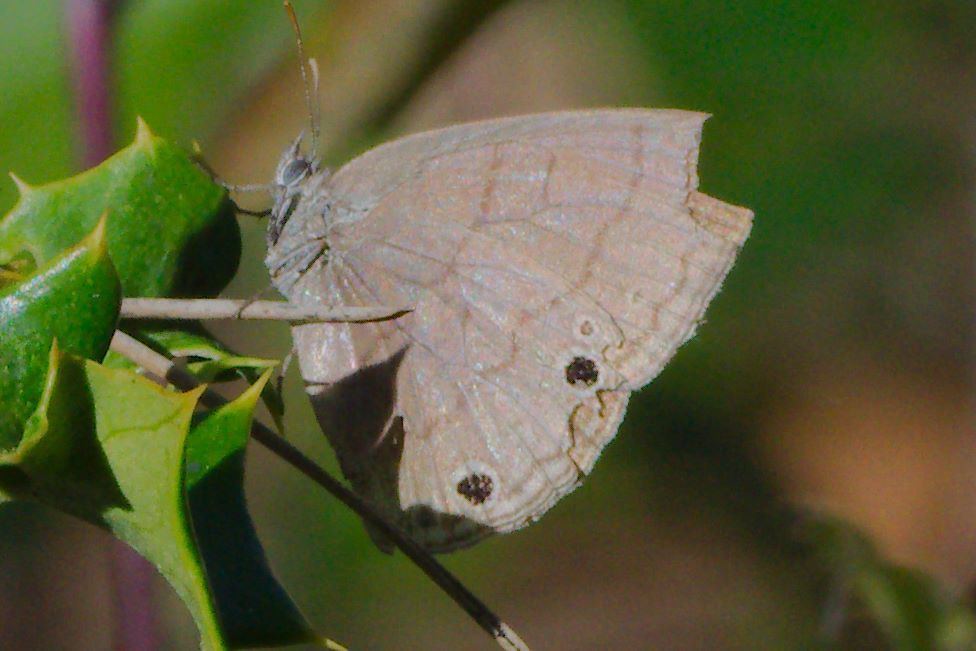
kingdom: Animalia
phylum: Arthropoda
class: Insecta
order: Lepidoptera
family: Nymphalidae
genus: Hermeuptychia
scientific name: Hermeuptychia hermes
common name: Hermes satyr
